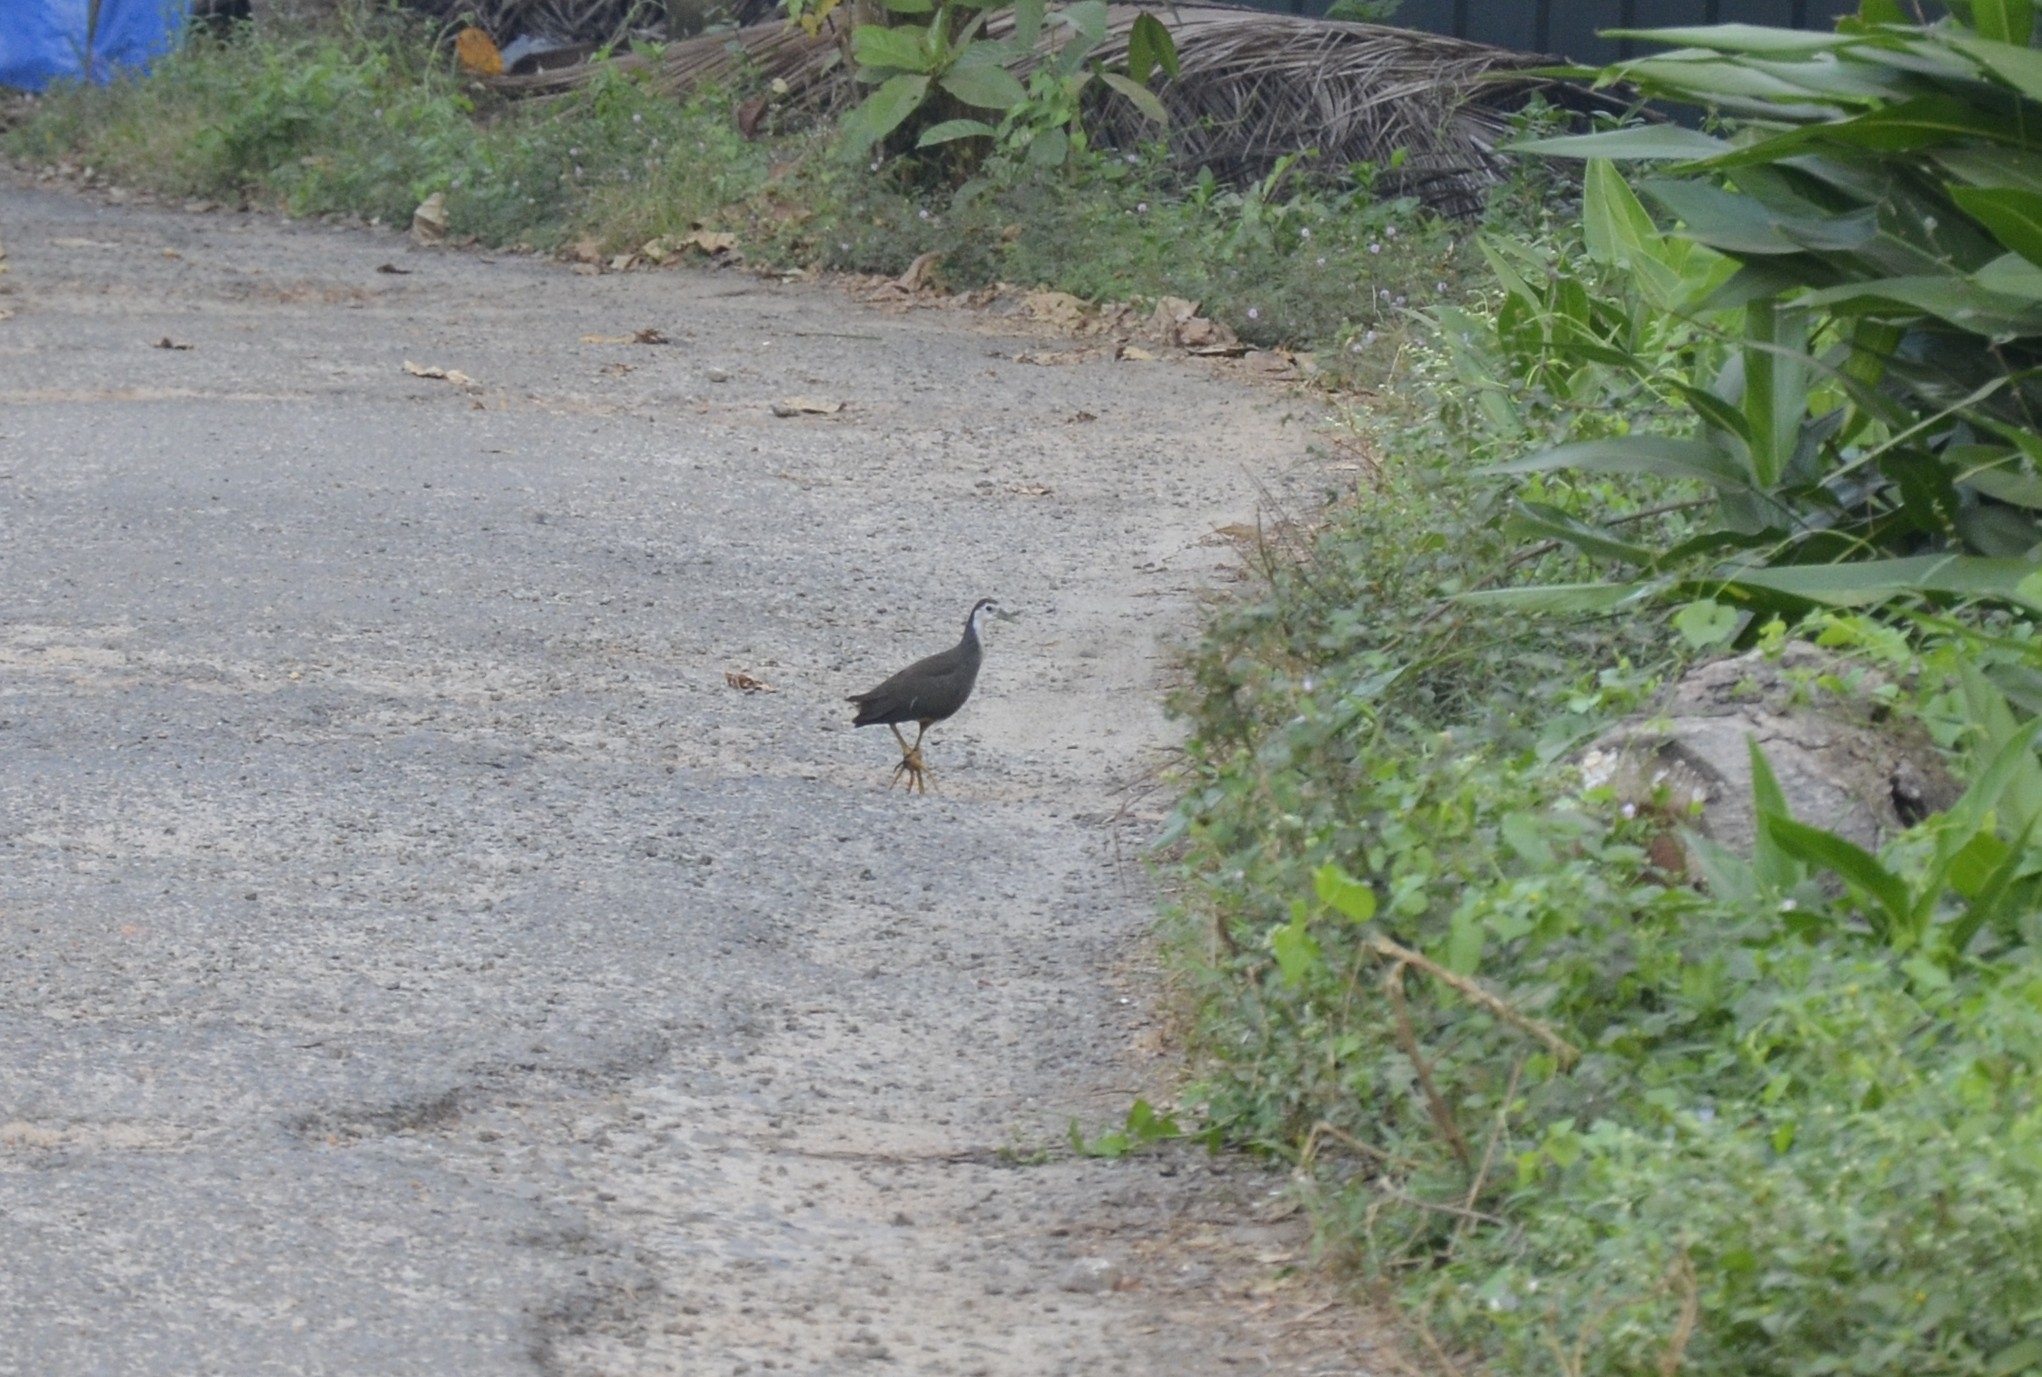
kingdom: Animalia
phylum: Chordata
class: Aves
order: Gruiformes
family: Rallidae
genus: Amaurornis
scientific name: Amaurornis phoenicurus
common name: White-breasted waterhen
